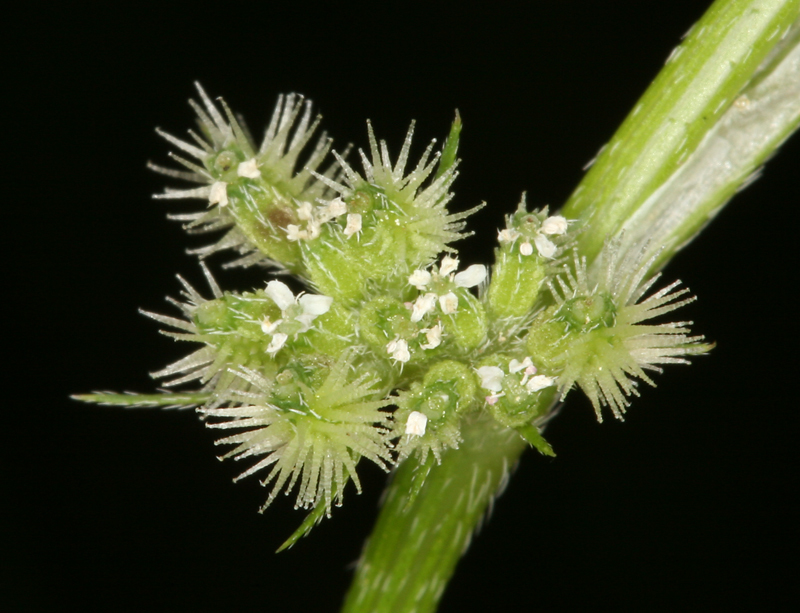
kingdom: Plantae
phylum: Tracheophyta
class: Magnoliopsida
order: Apiales
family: Apiaceae
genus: Torilis
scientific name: Torilis nodosa
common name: Knotted hedge-parsley
